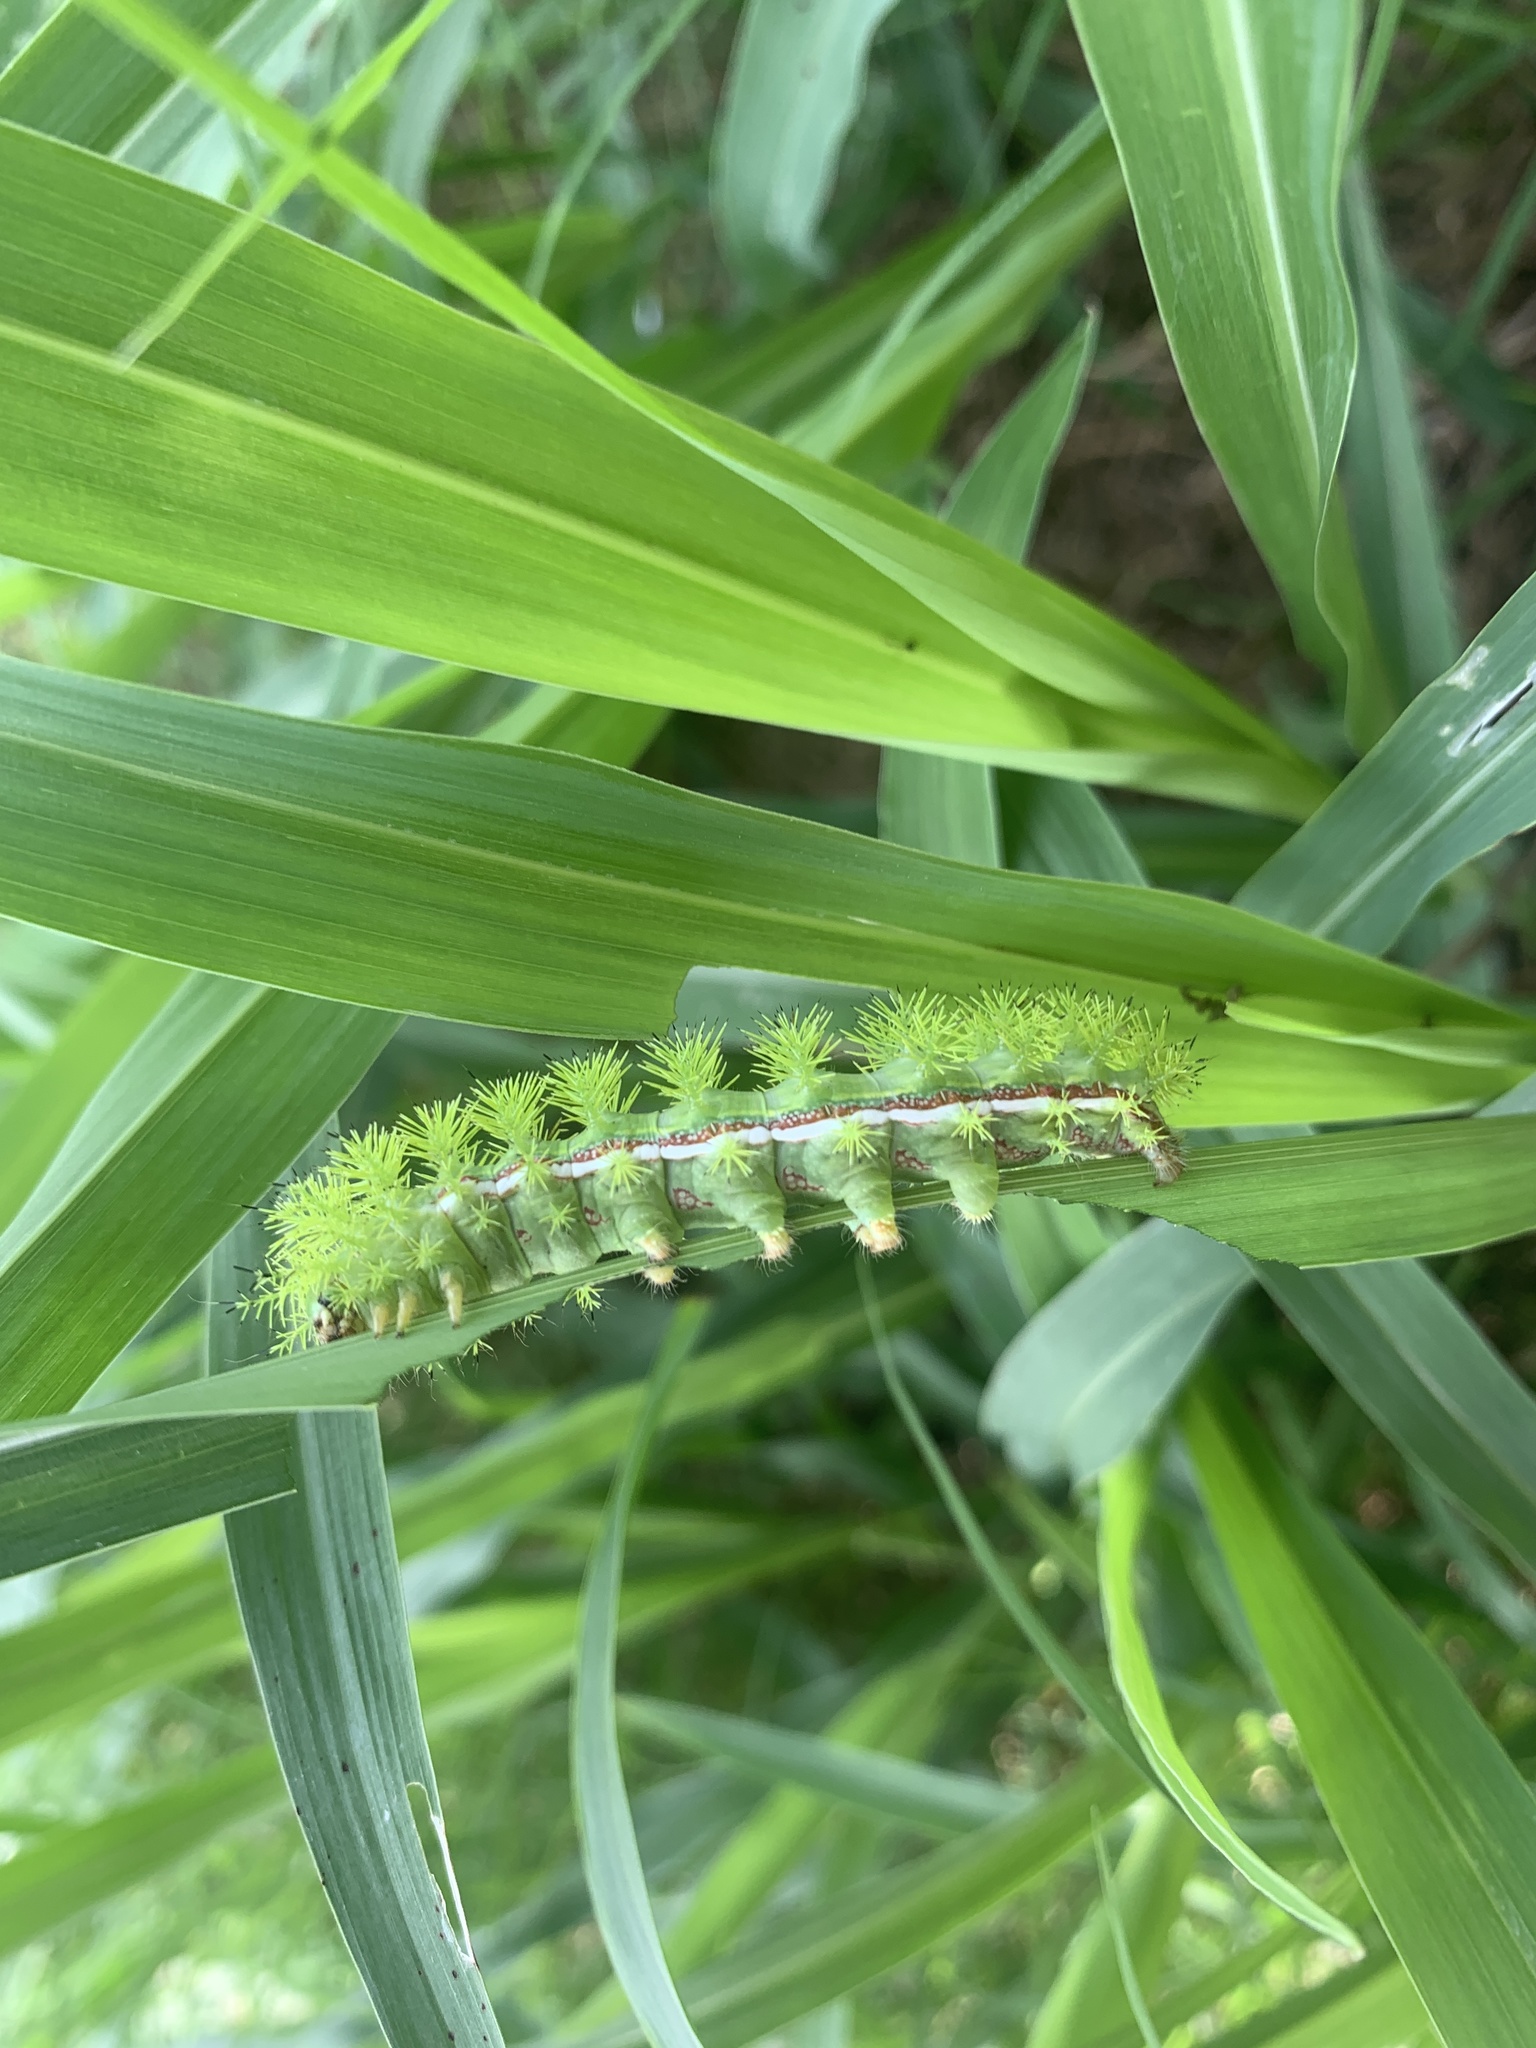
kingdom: Animalia
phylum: Arthropoda
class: Insecta
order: Lepidoptera
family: Saturniidae
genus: Automeris
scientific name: Automeris io
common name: Io moth
